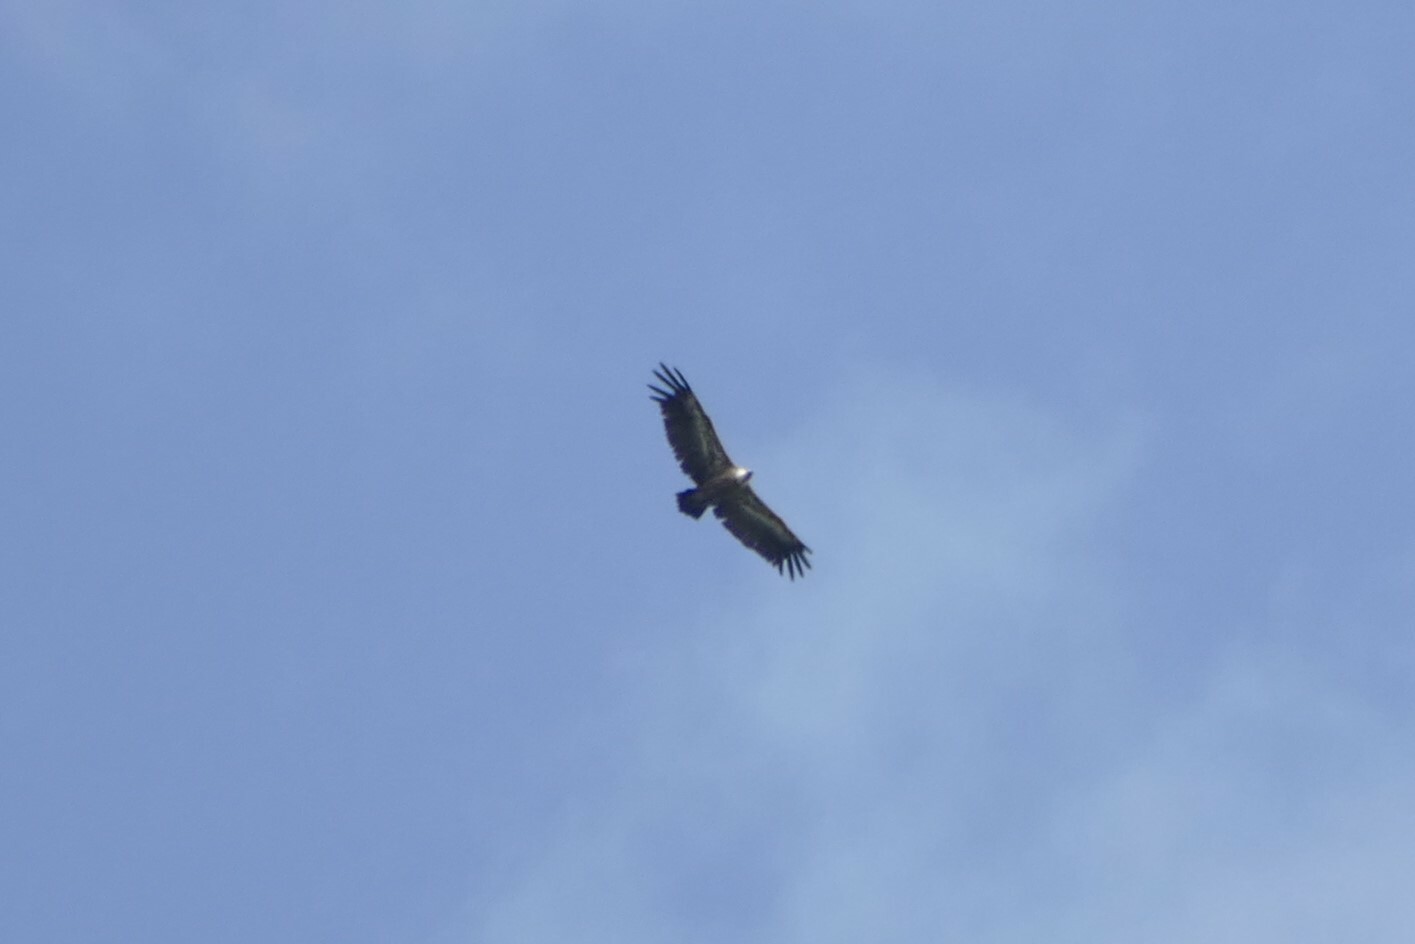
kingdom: Animalia
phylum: Chordata
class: Aves
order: Accipitriformes
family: Accipitridae
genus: Gyps
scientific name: Gyps fulvus
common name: Griffon vulture
